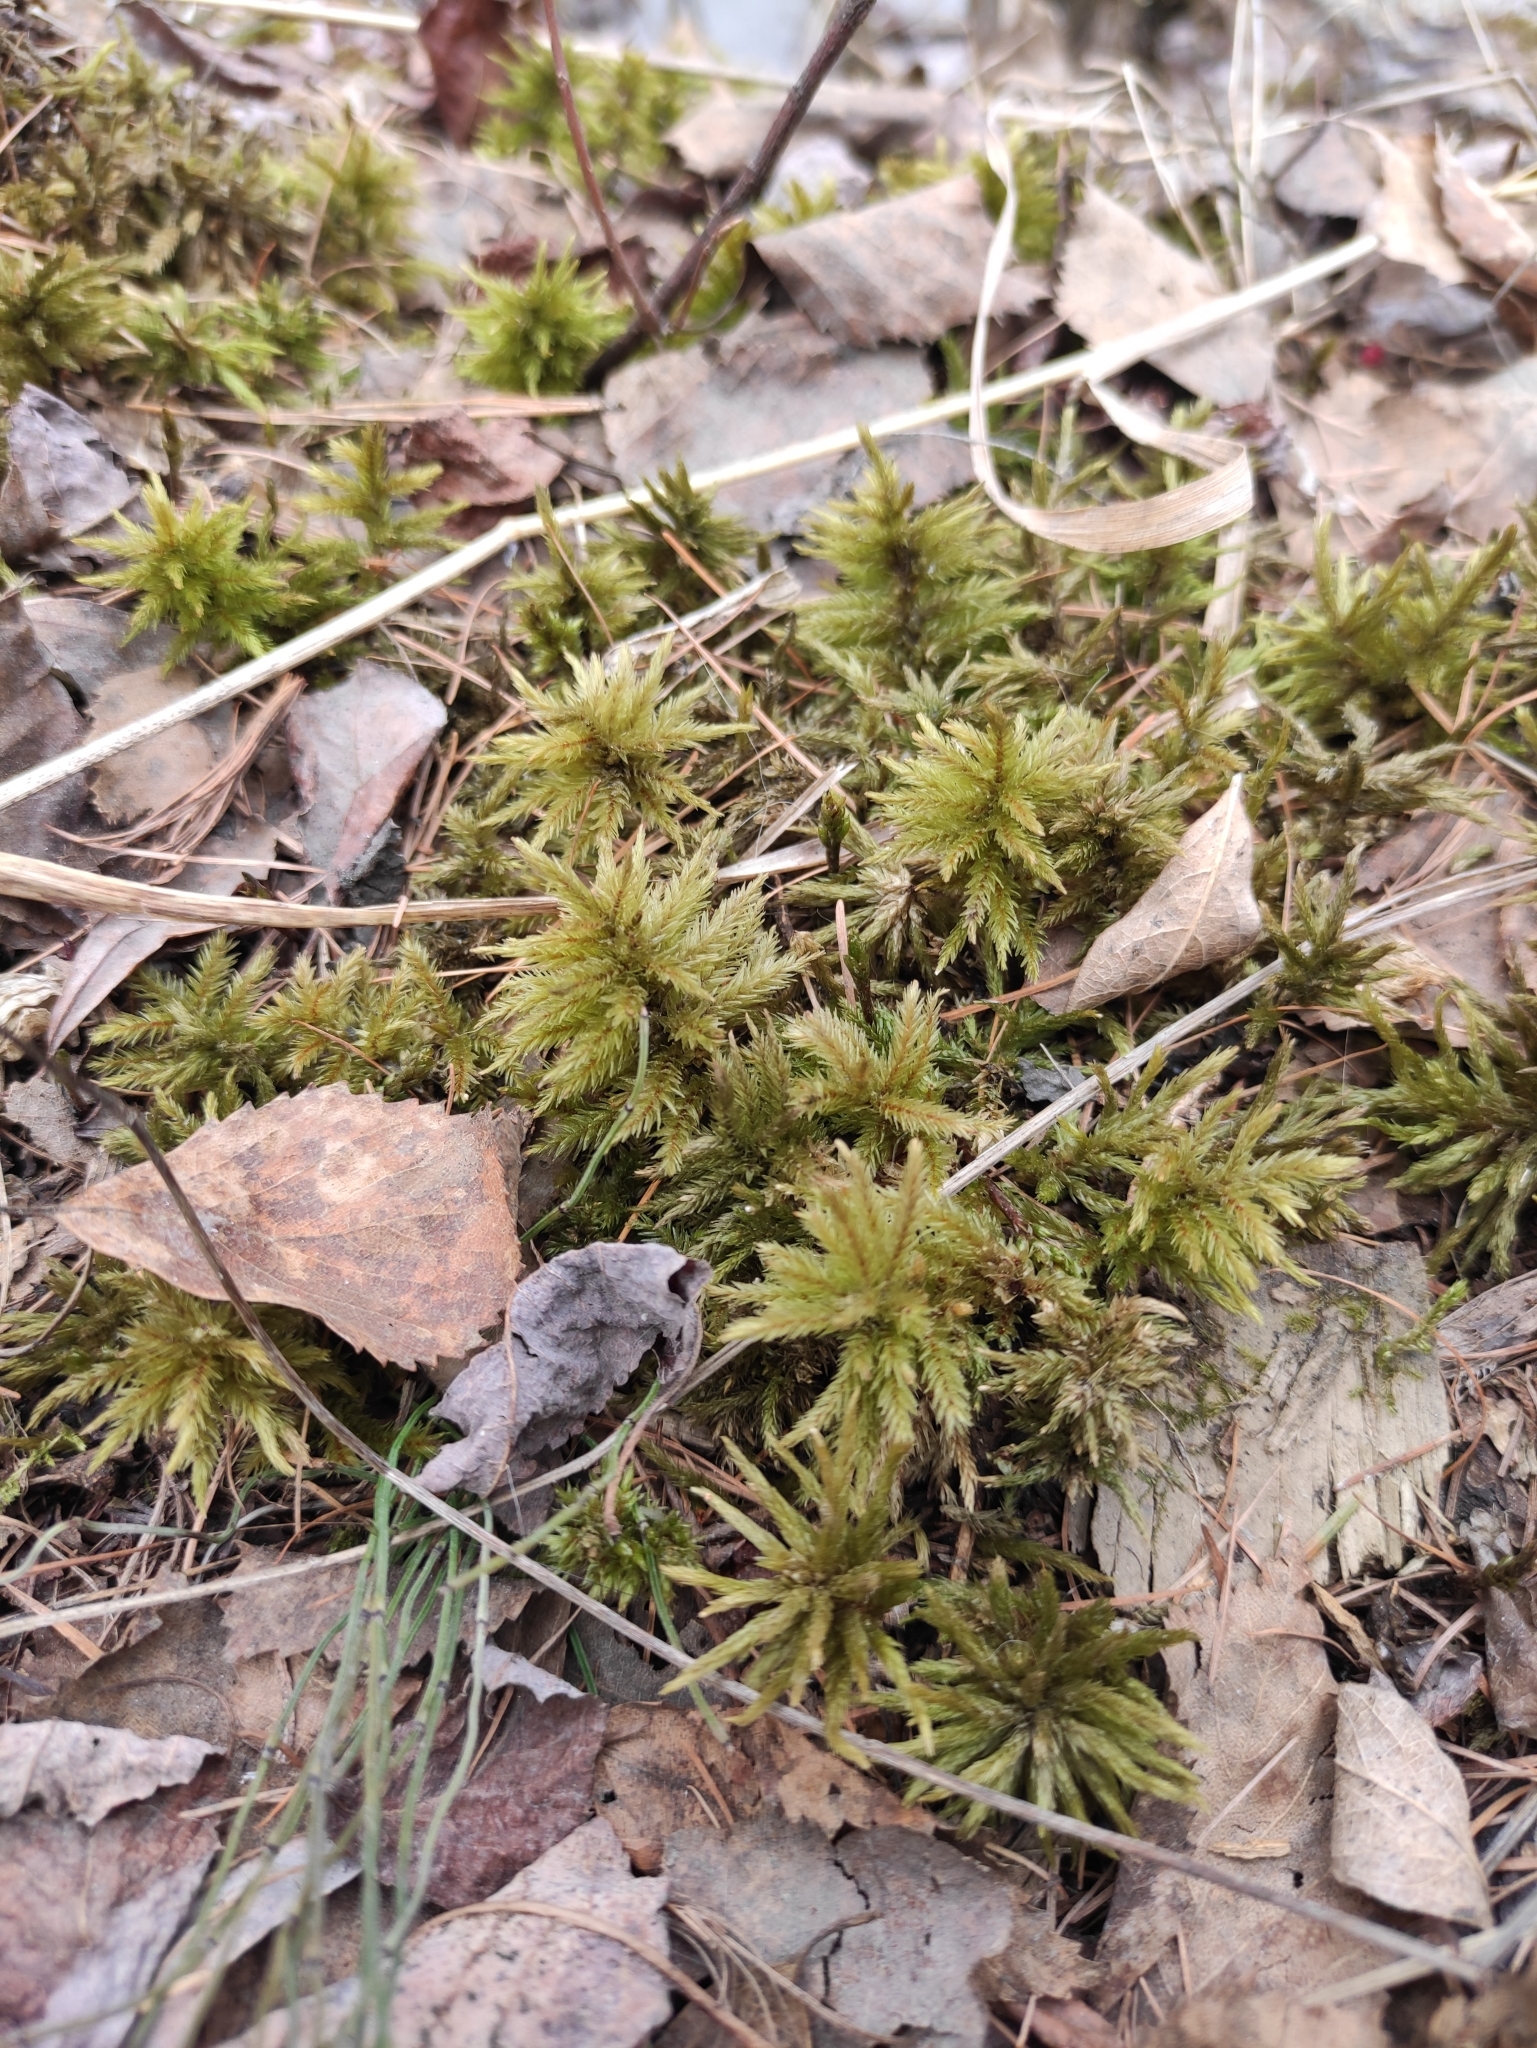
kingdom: Plantae
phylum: Bryophyta
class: Bryopsida
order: Hypnales
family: Climaciaceae
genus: Climacium
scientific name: Climacium dendroides
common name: Northern tree moss
